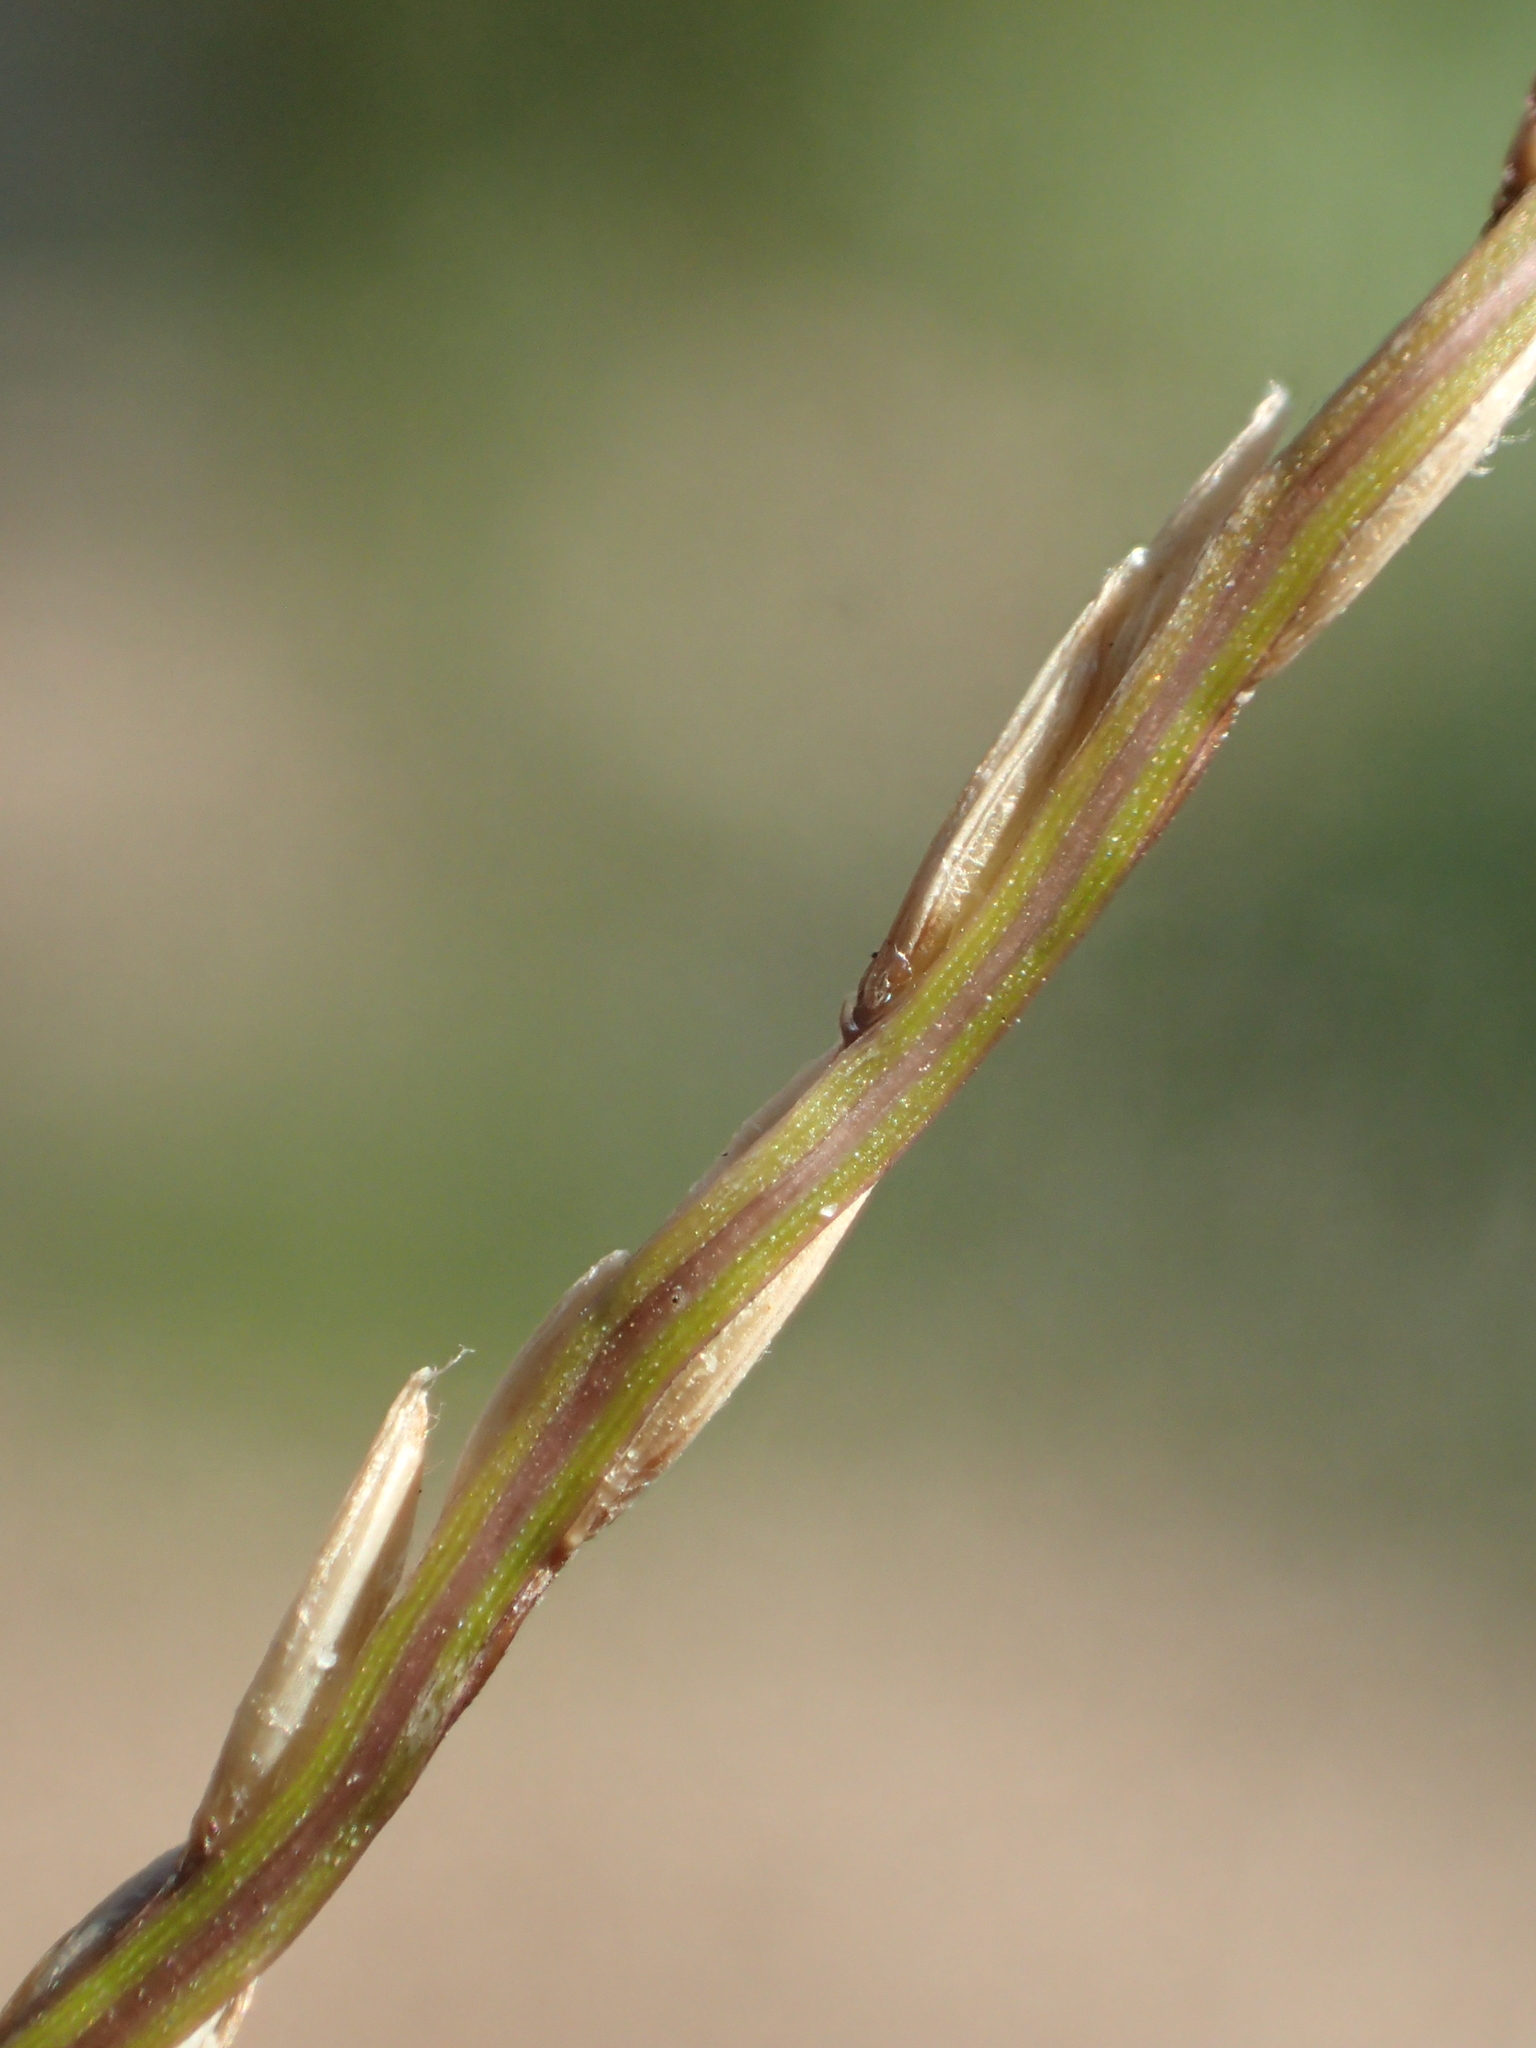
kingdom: Plantae
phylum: Tracheophyta
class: Liliopsida
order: Poales
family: Poaceae
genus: Digitaria
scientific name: Digitaria radicosa
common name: Trailing crabgrass
